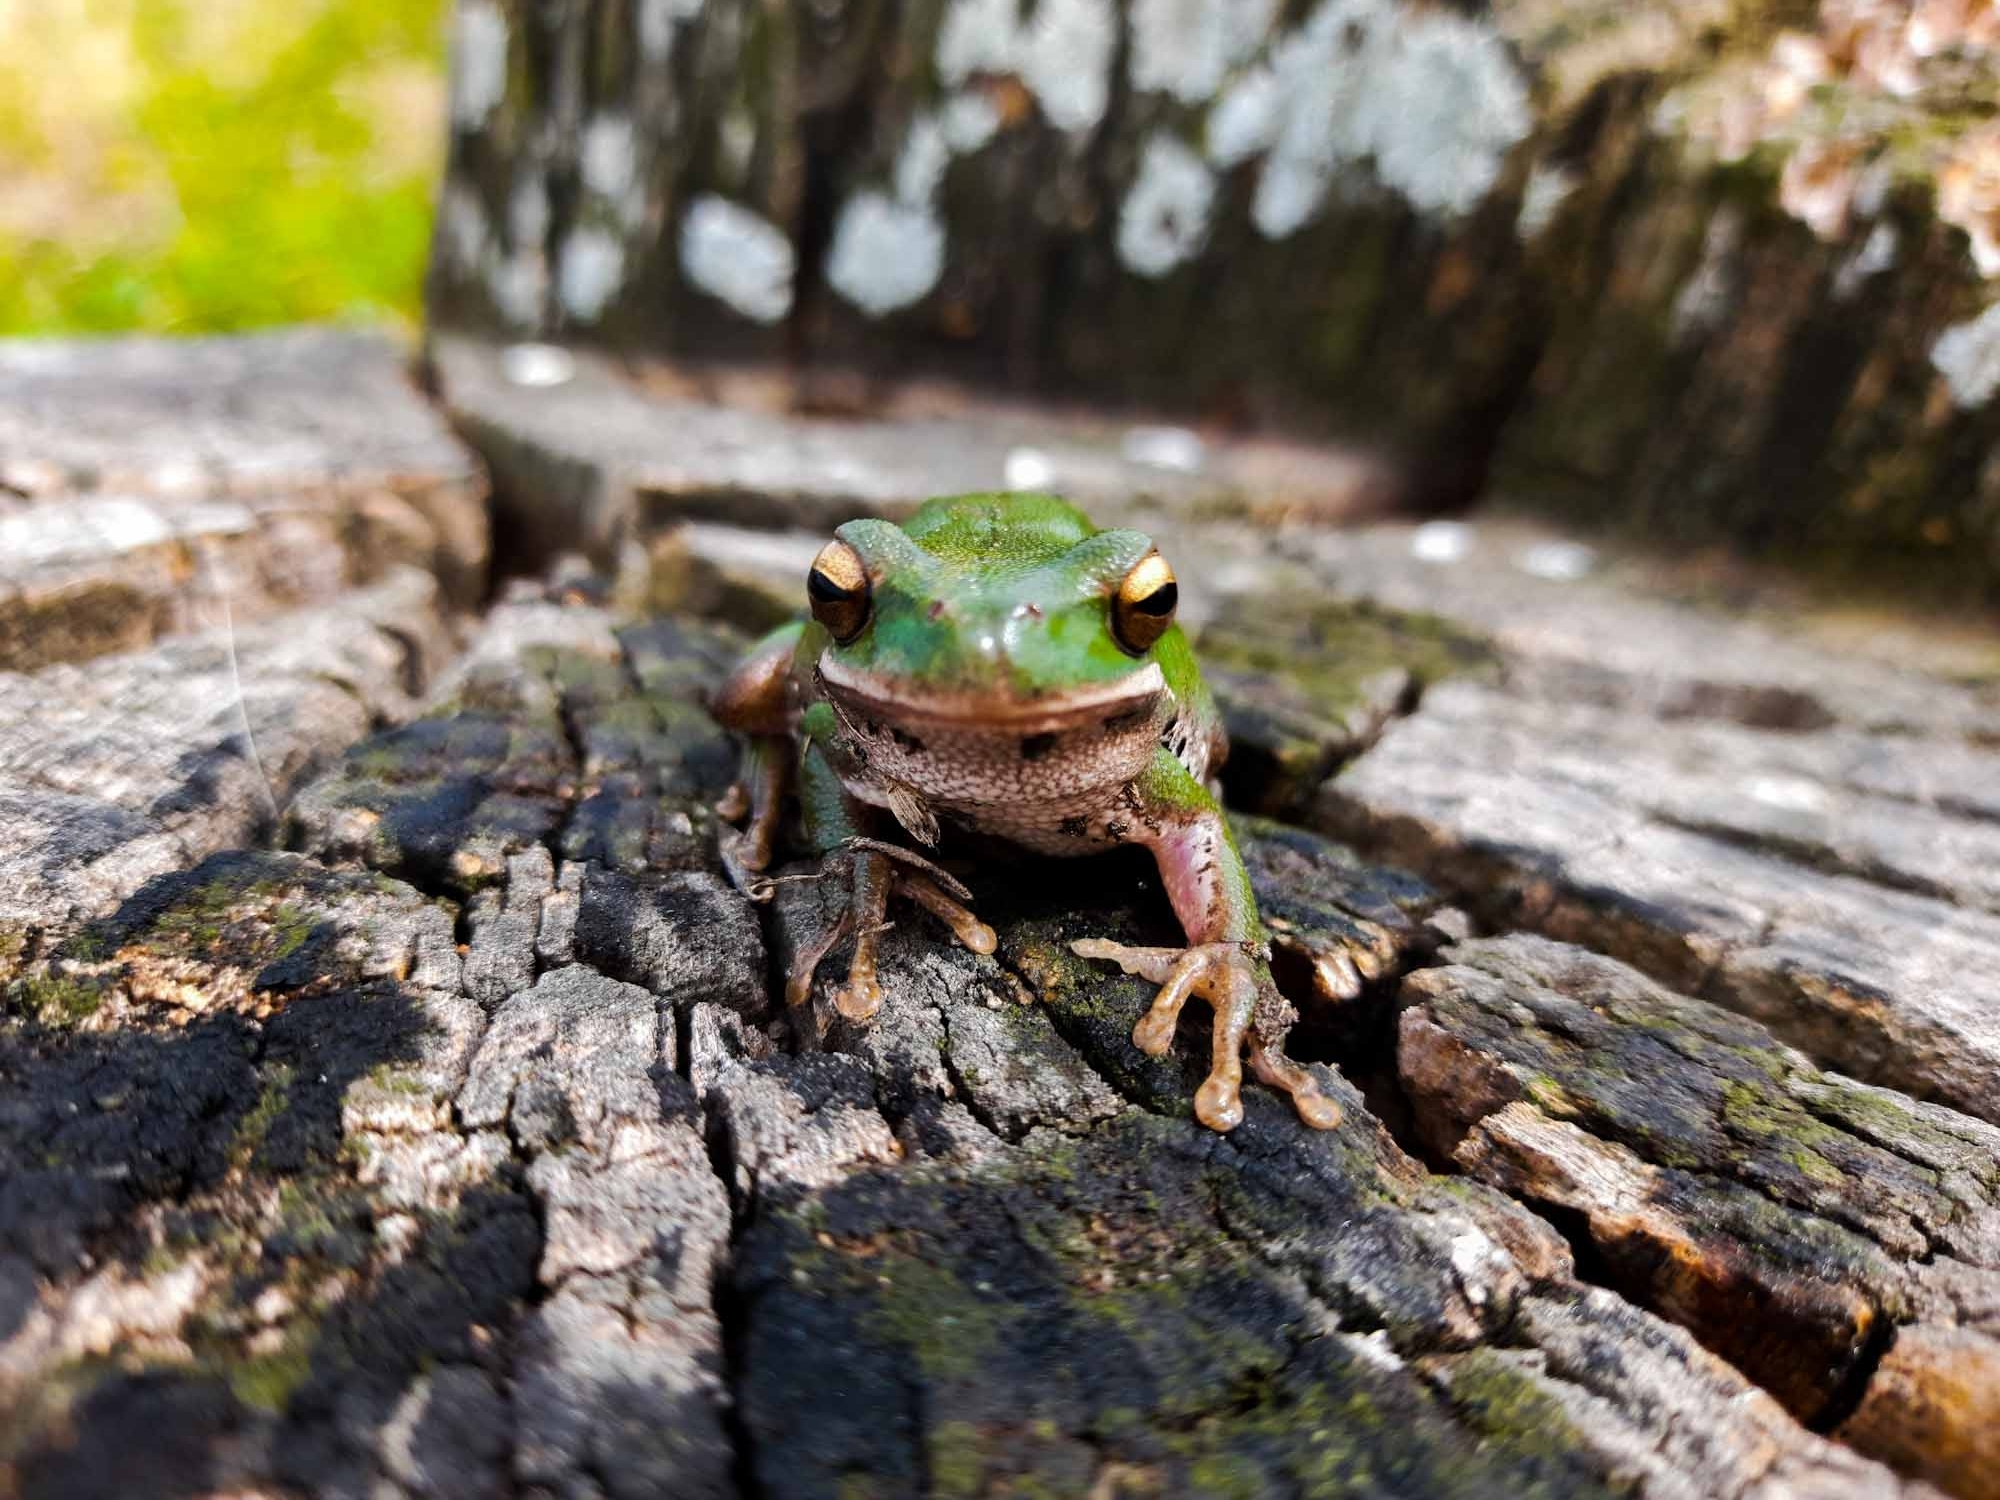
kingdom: Animalia
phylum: Chordata
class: Amphibia
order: Anura
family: Hylidae
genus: Boana
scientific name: Boana pulchella
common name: Montevideo treefrog
